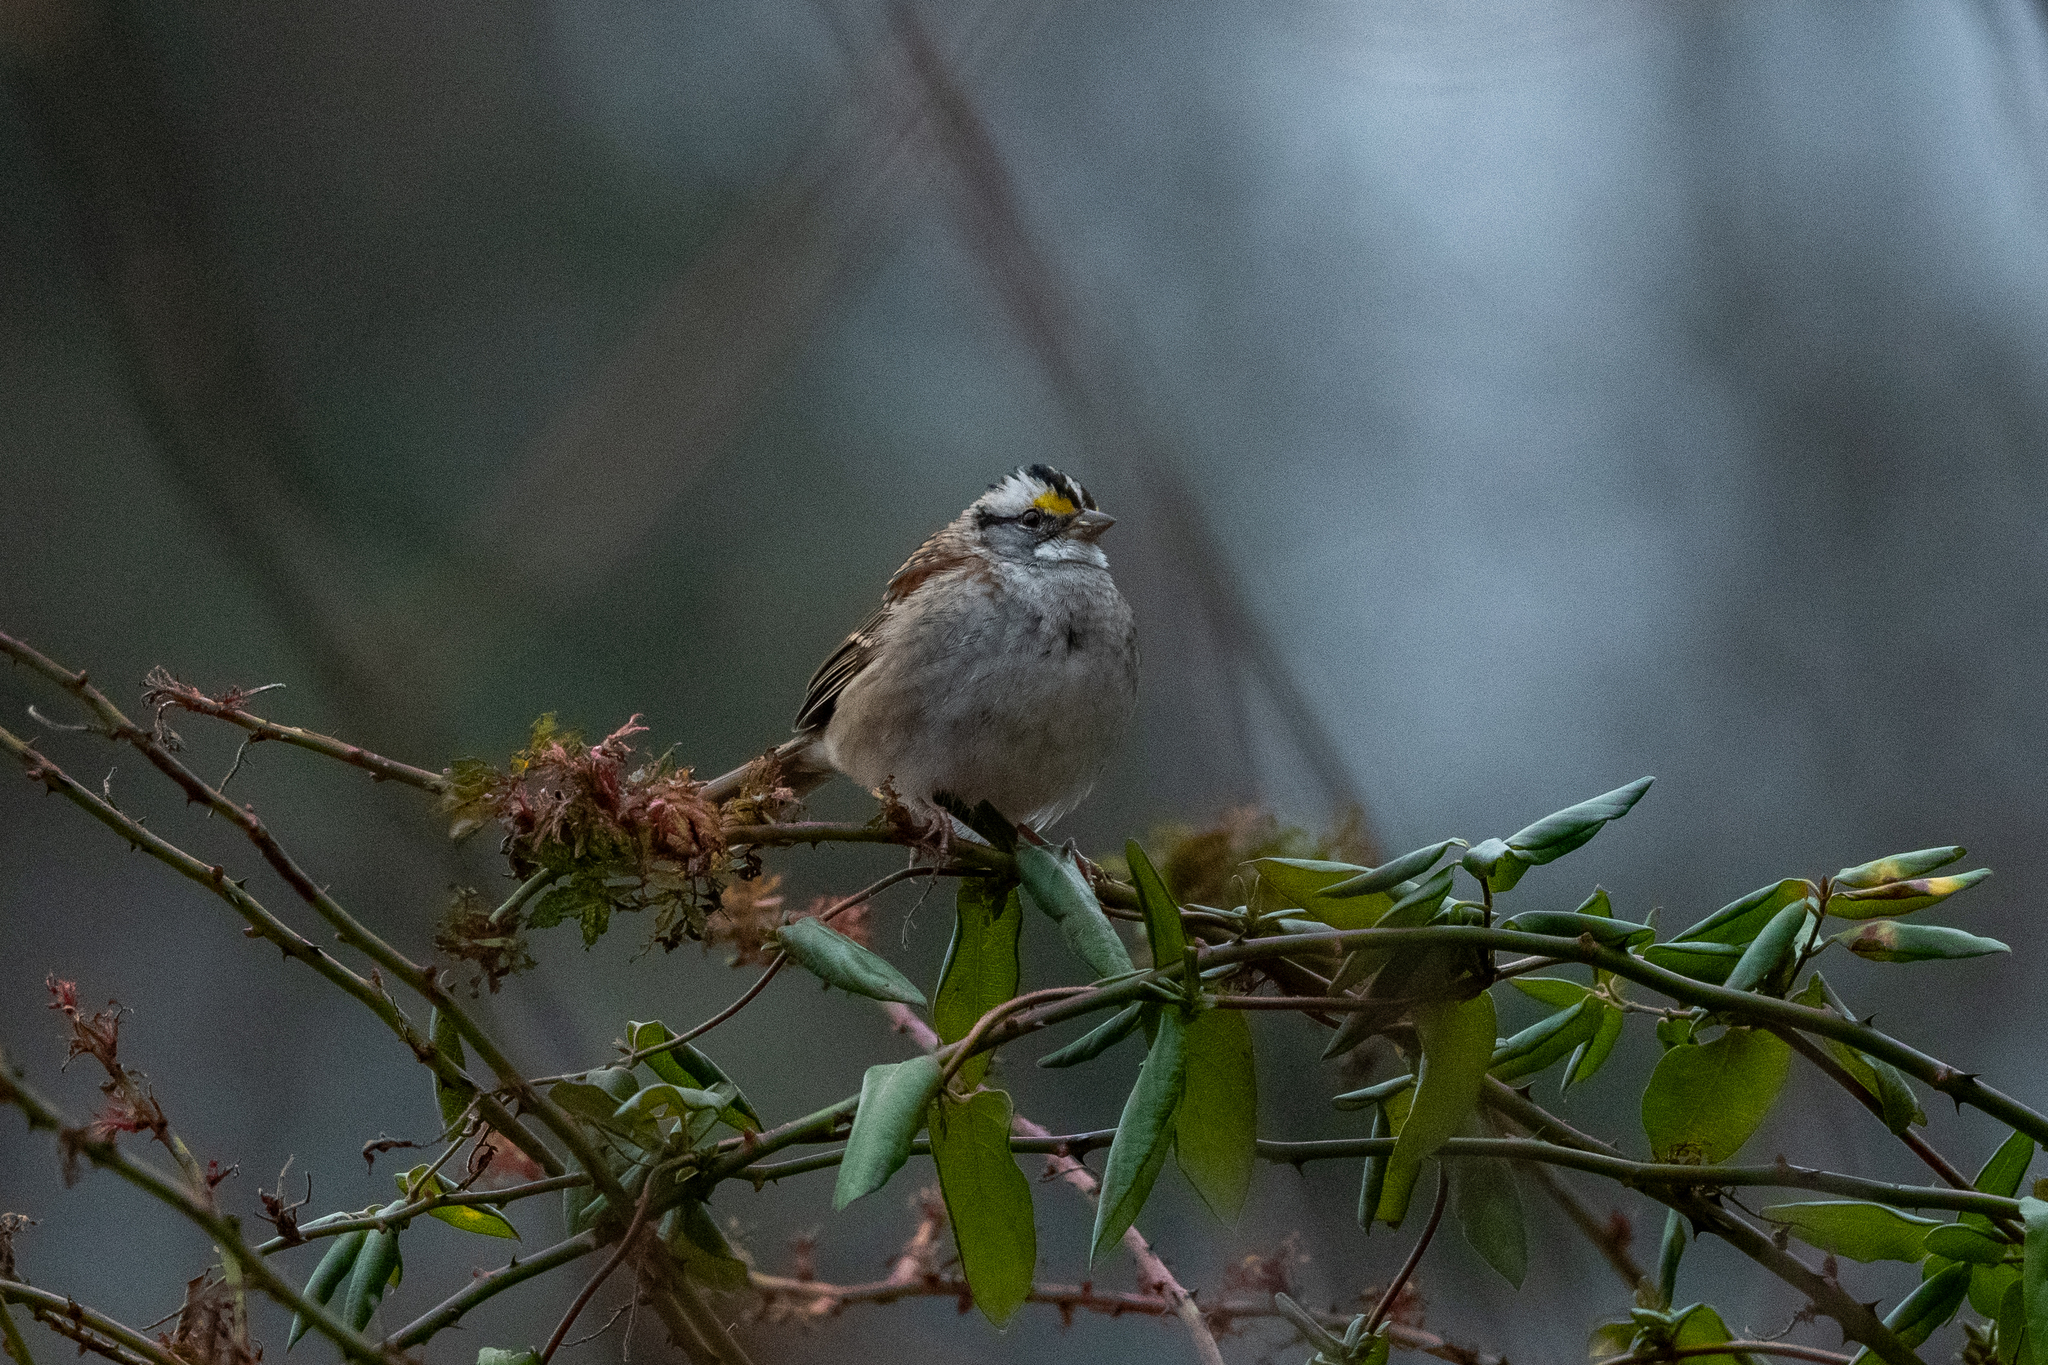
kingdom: Animalia
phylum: Chordata
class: Aves
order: Passeriformes
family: Passerellidae
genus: Zonotrichia
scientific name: Zonotrichia albicollis
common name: White-throated sparrow
